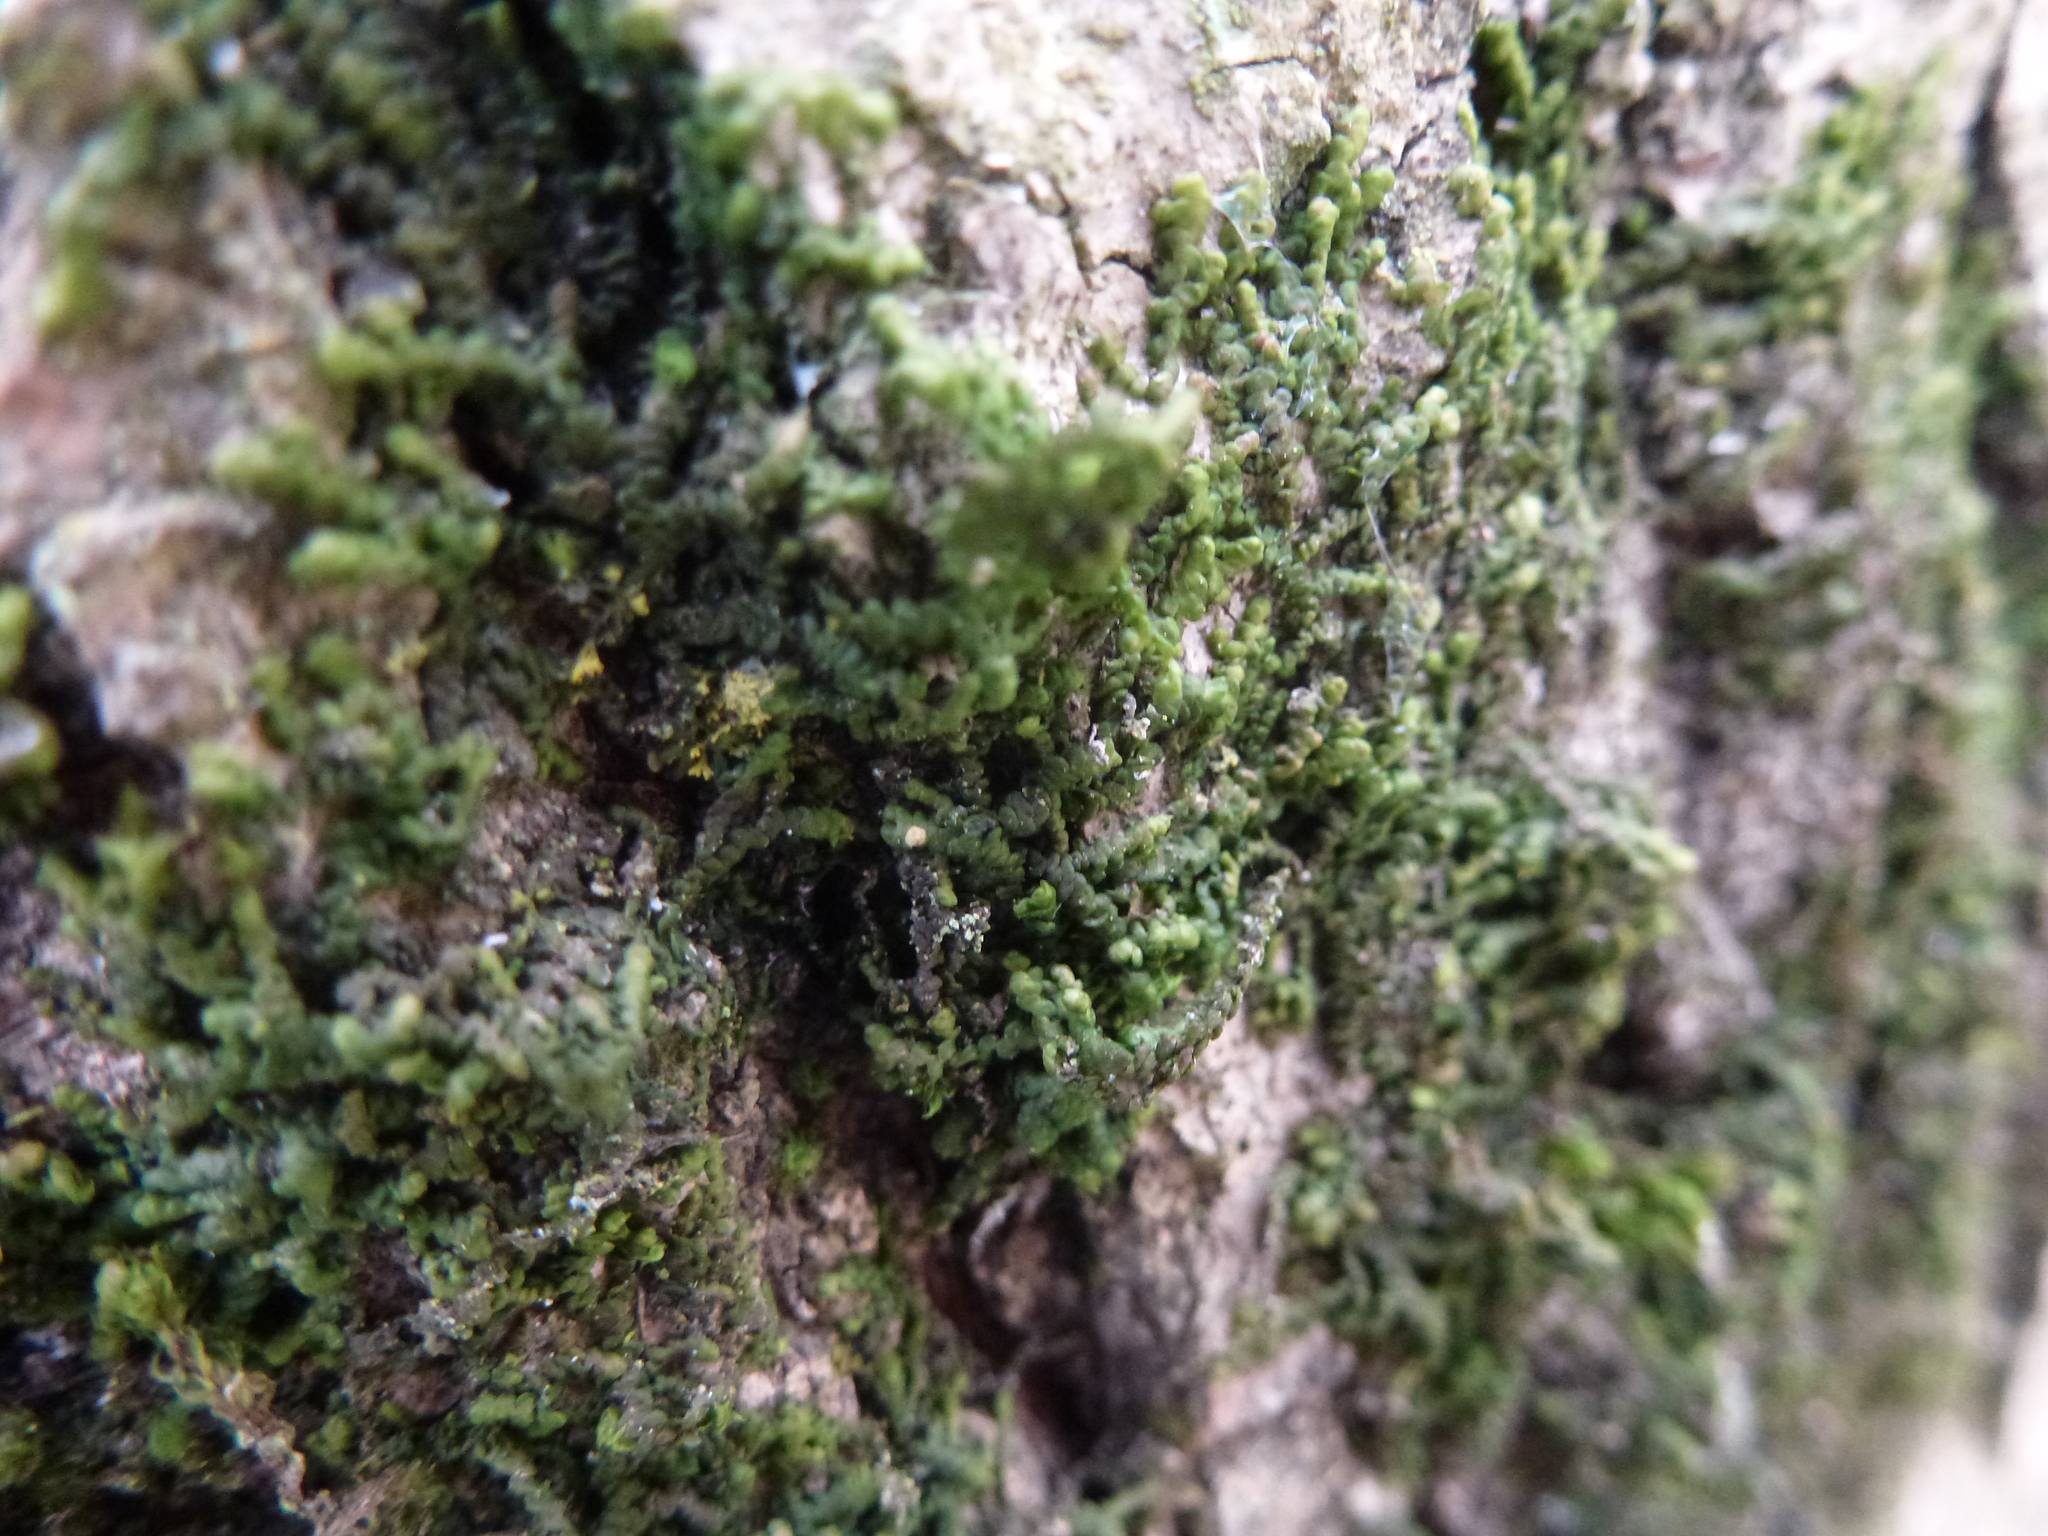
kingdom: Plantae
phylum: Marchantiophyta
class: Jungermanniopsida
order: Porellales
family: Frullaniaceae
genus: Frullania
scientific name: Frullania dilatata
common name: Dilated scalewort
